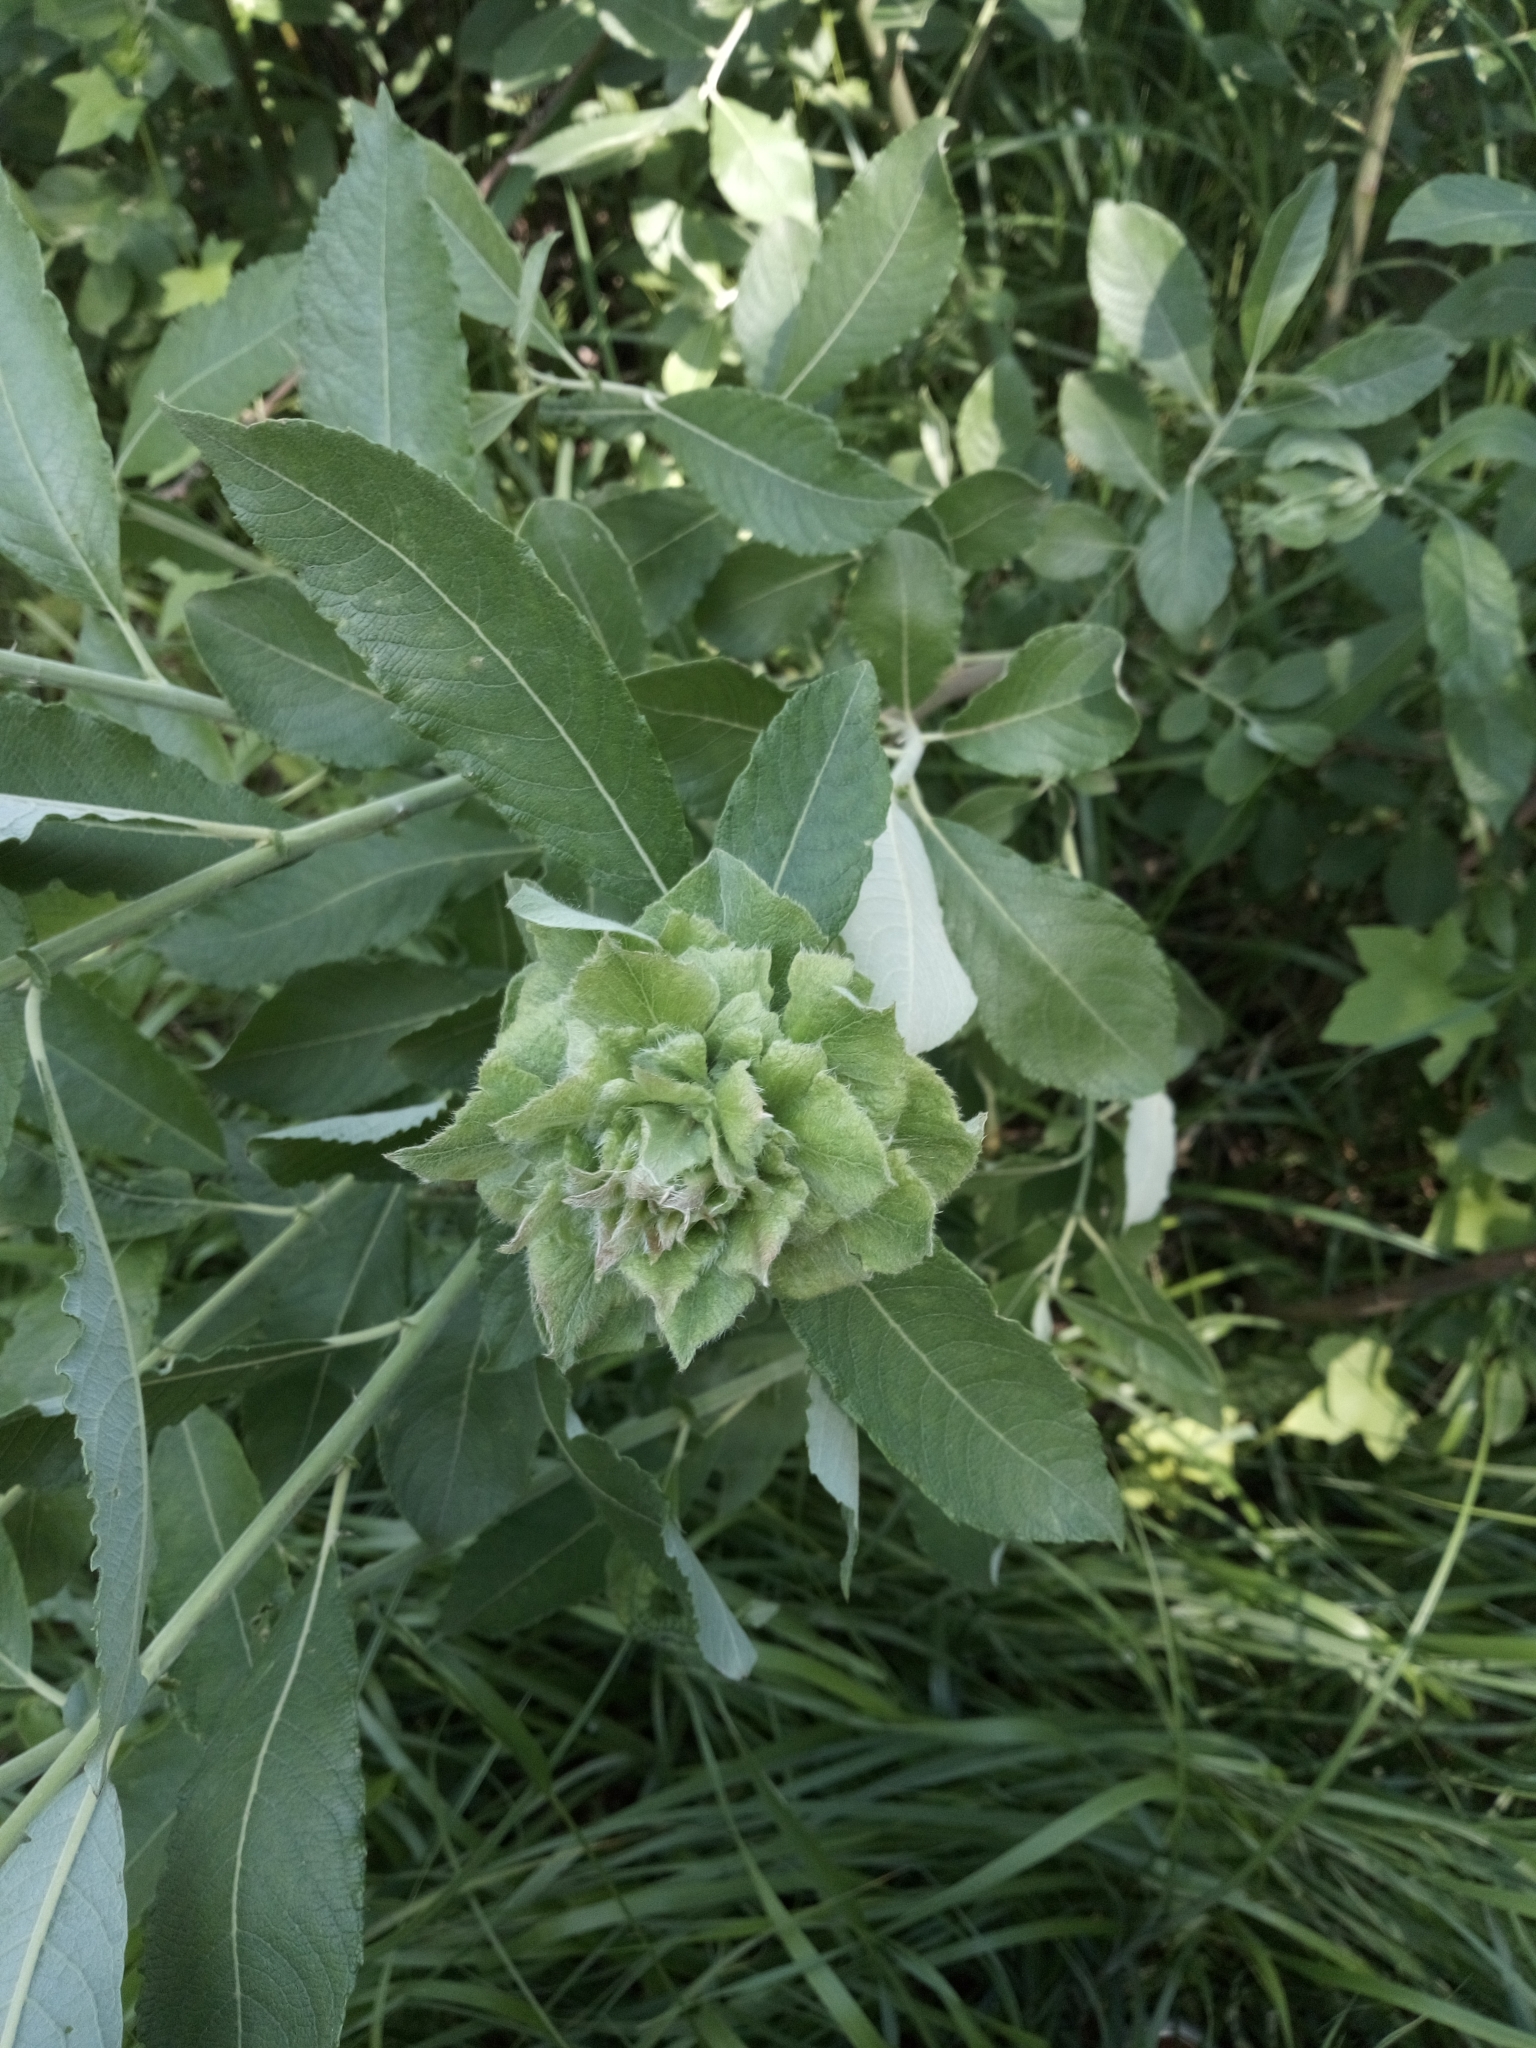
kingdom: Animalia
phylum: Arthropoda
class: Insecta
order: Diptera
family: Cecidomyiidae
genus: Rabdophaga
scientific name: Rabdophaga rosaria
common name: Willow rose gall midge
